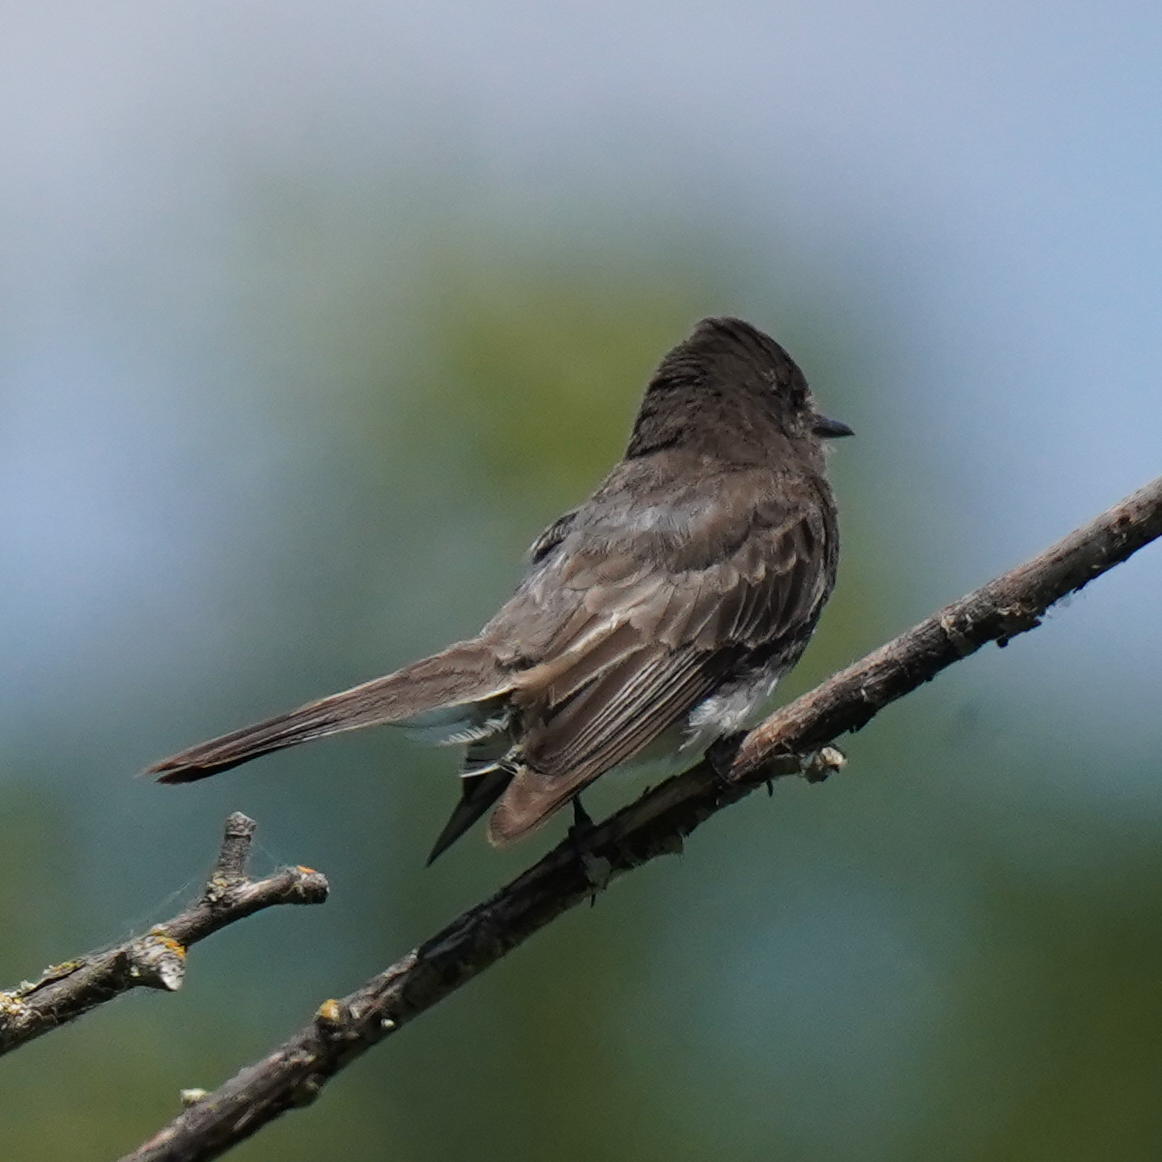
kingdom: Animalia
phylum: Chordata
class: Aves
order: Passeriformes
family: Tyrannidae
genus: Sayornis
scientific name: Sayornis nigricans
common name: Black phoebe
